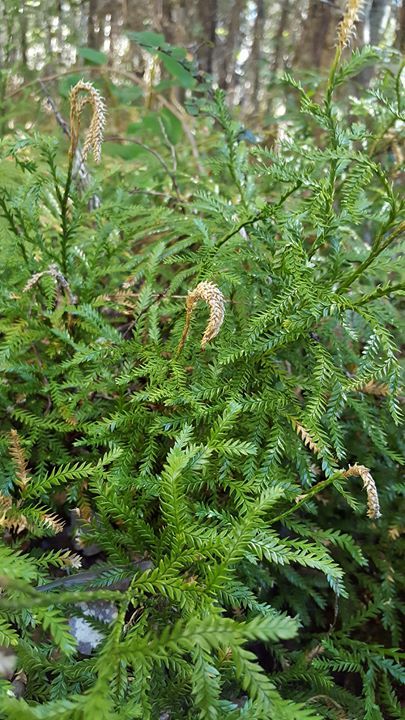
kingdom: Plantae
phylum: Tracheophyta
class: Lycopodiopsida
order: Lycopodiales
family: Lycopodiaceae
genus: Diphasium
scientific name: Diphasium scariosum
